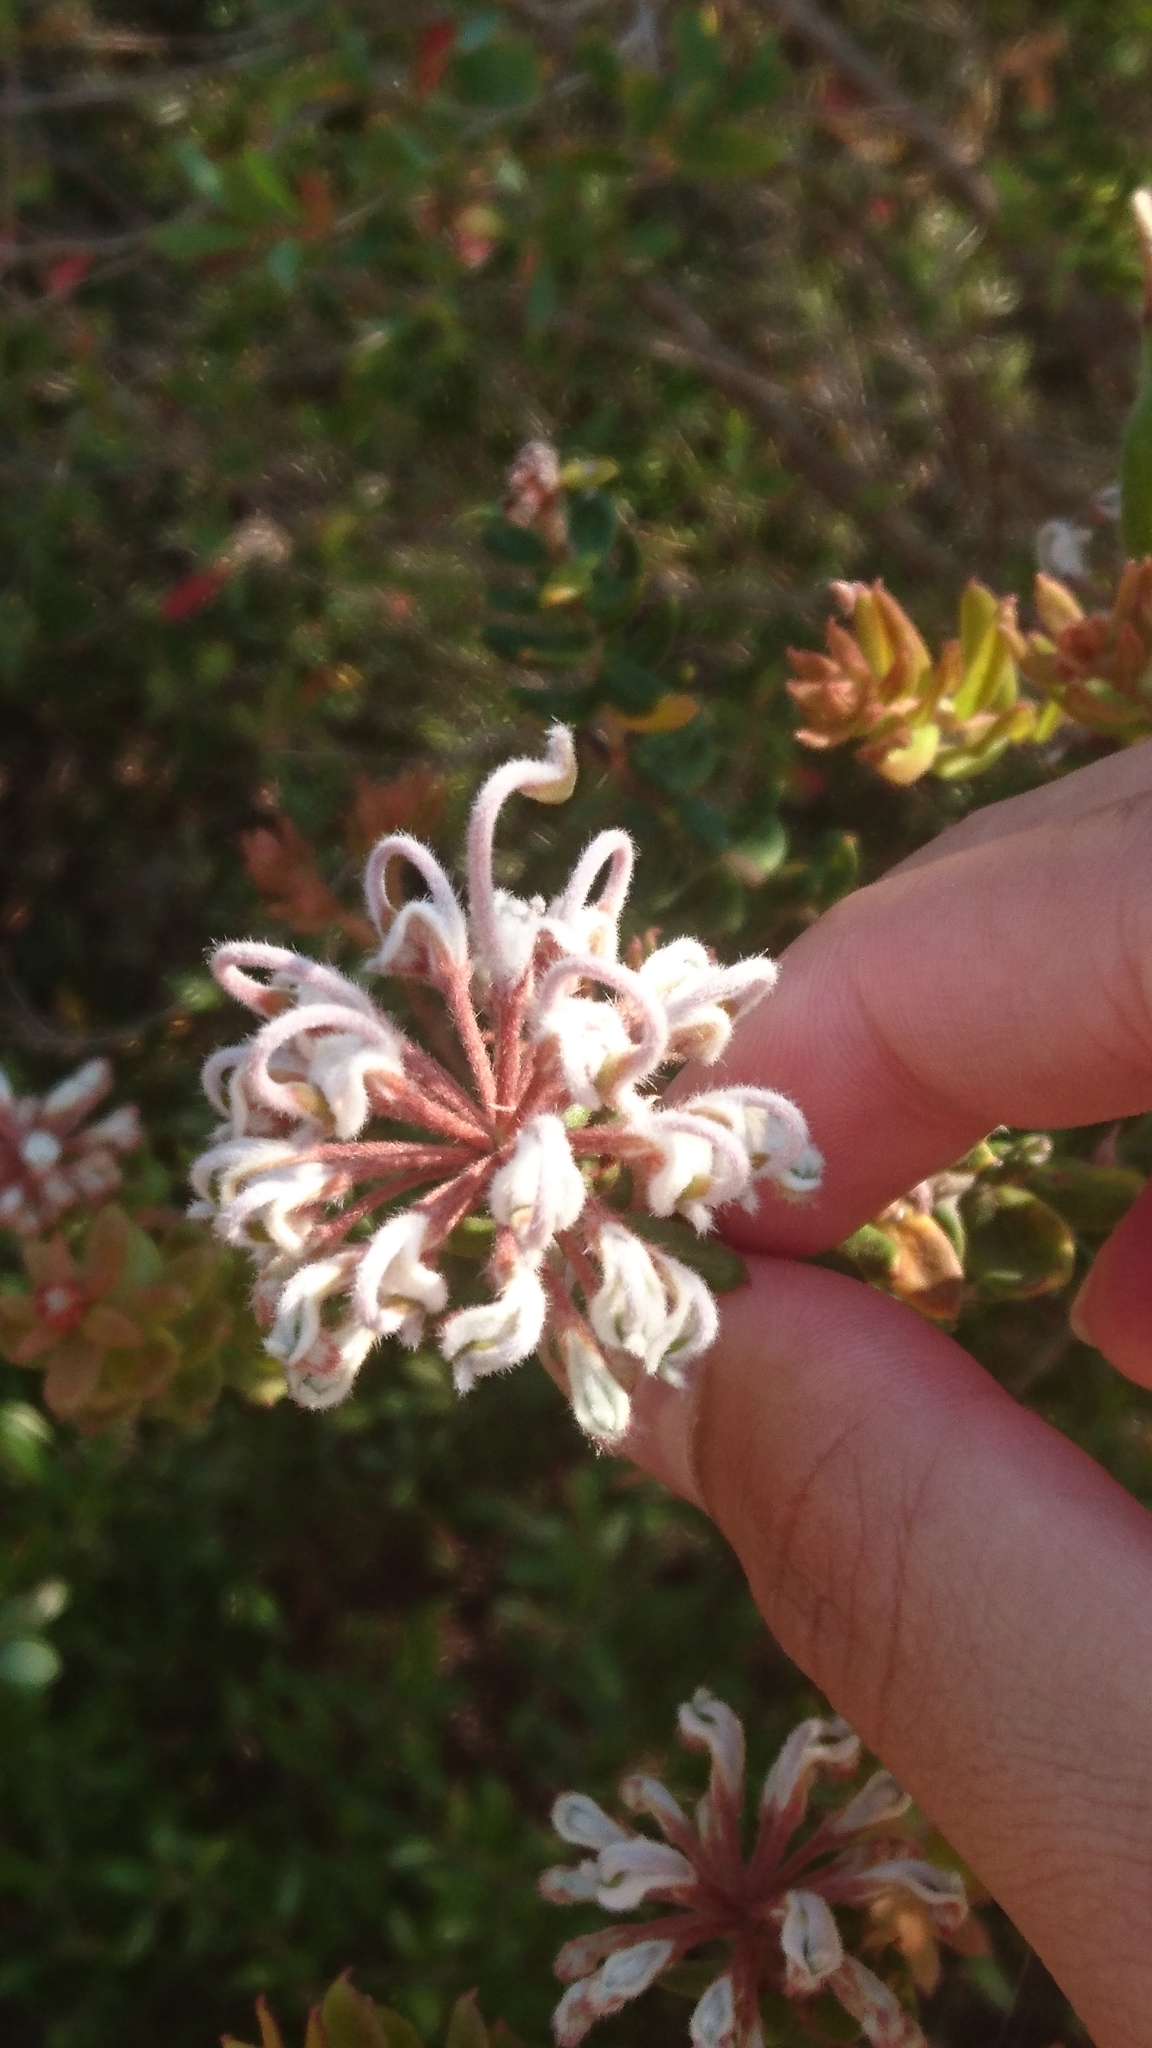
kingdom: Plantae
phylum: Tracheophyta
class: Magnoliopsida
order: Proteales
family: Proteaceae
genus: Grevillea
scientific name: Grevillea buxifolia
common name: Grey spiderflower
